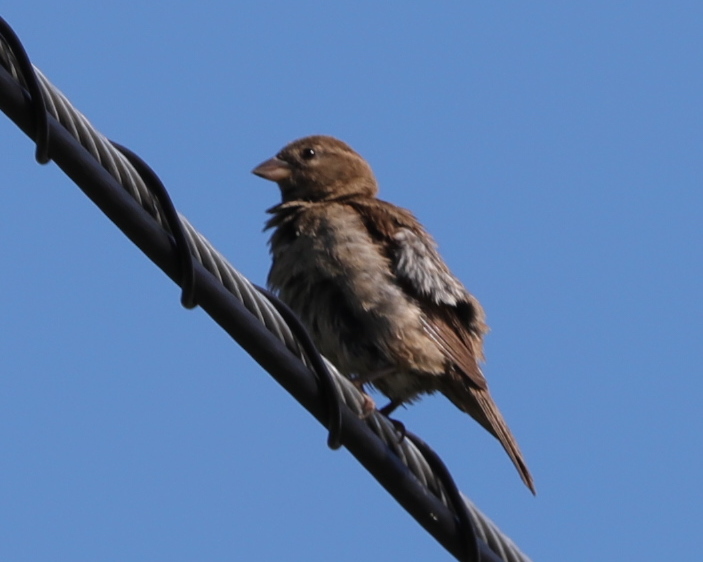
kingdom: Animalia
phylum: Chordata
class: Aves
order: Passeriformes
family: Passeridae
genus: Passer
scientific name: Passer domesticus
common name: House sparrow
